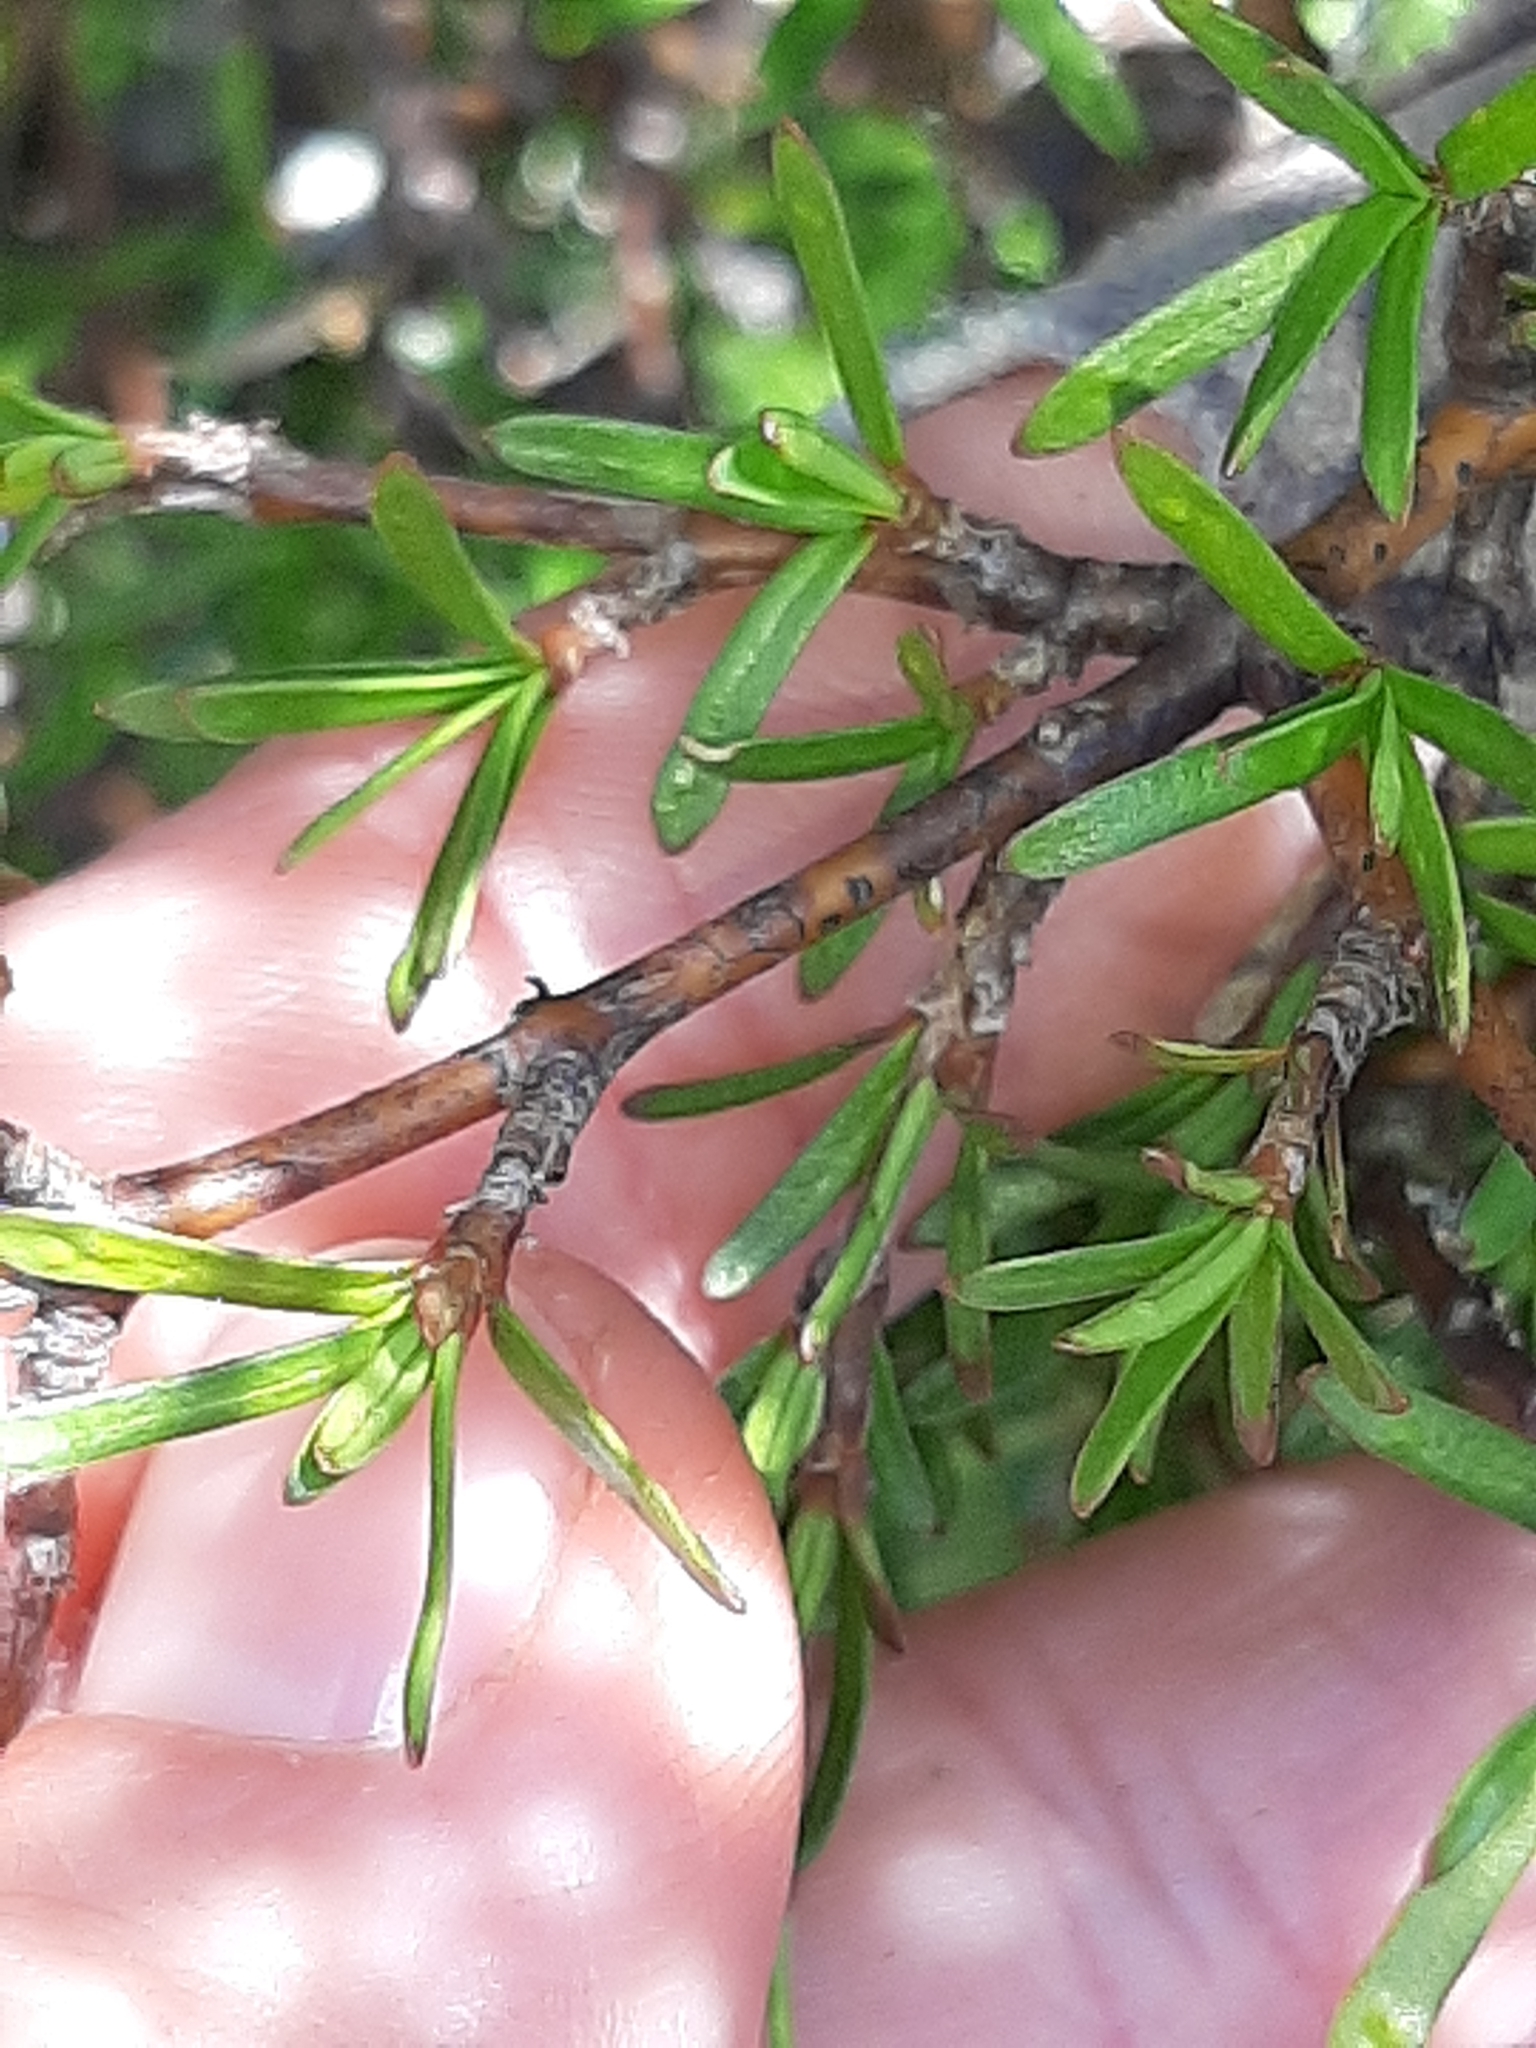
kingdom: Plantae
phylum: Tracheophyta
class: Magnoliopsida
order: Gentianales
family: Rubiaceae
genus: Coprosma
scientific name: Coprosma rugosa
